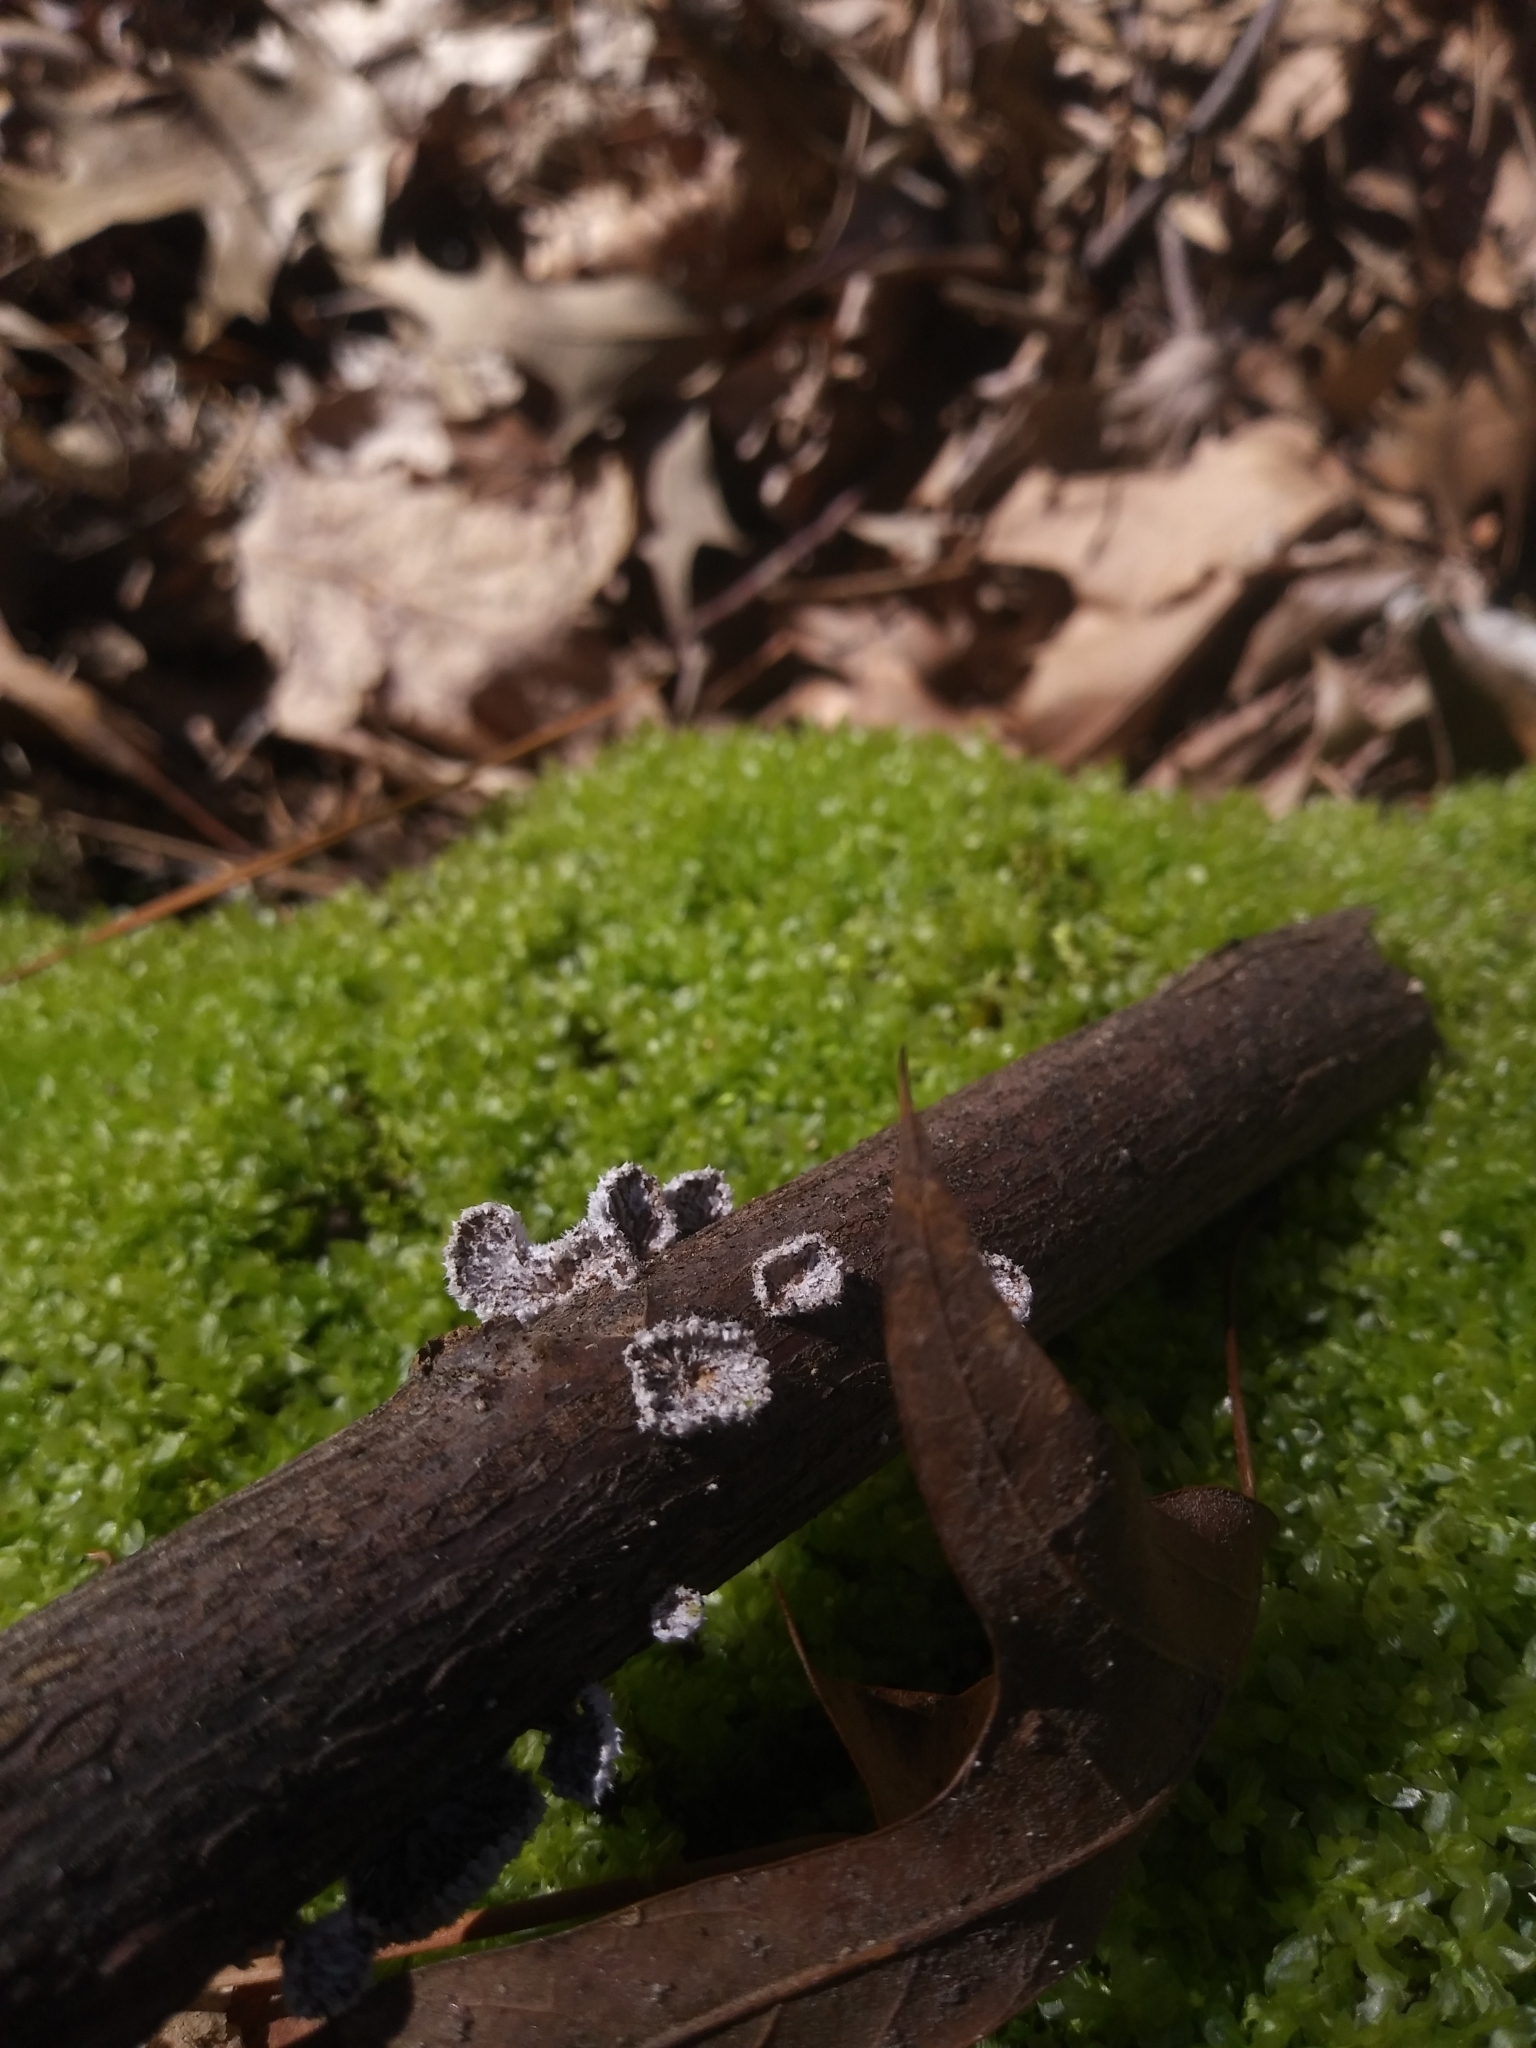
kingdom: Fungi
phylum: Basidiomycota
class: Agaricomycetes
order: Agaricales
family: Schizophyllaceae
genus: Schizophyllum
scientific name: Schizophyllum commune
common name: Common porecrust
